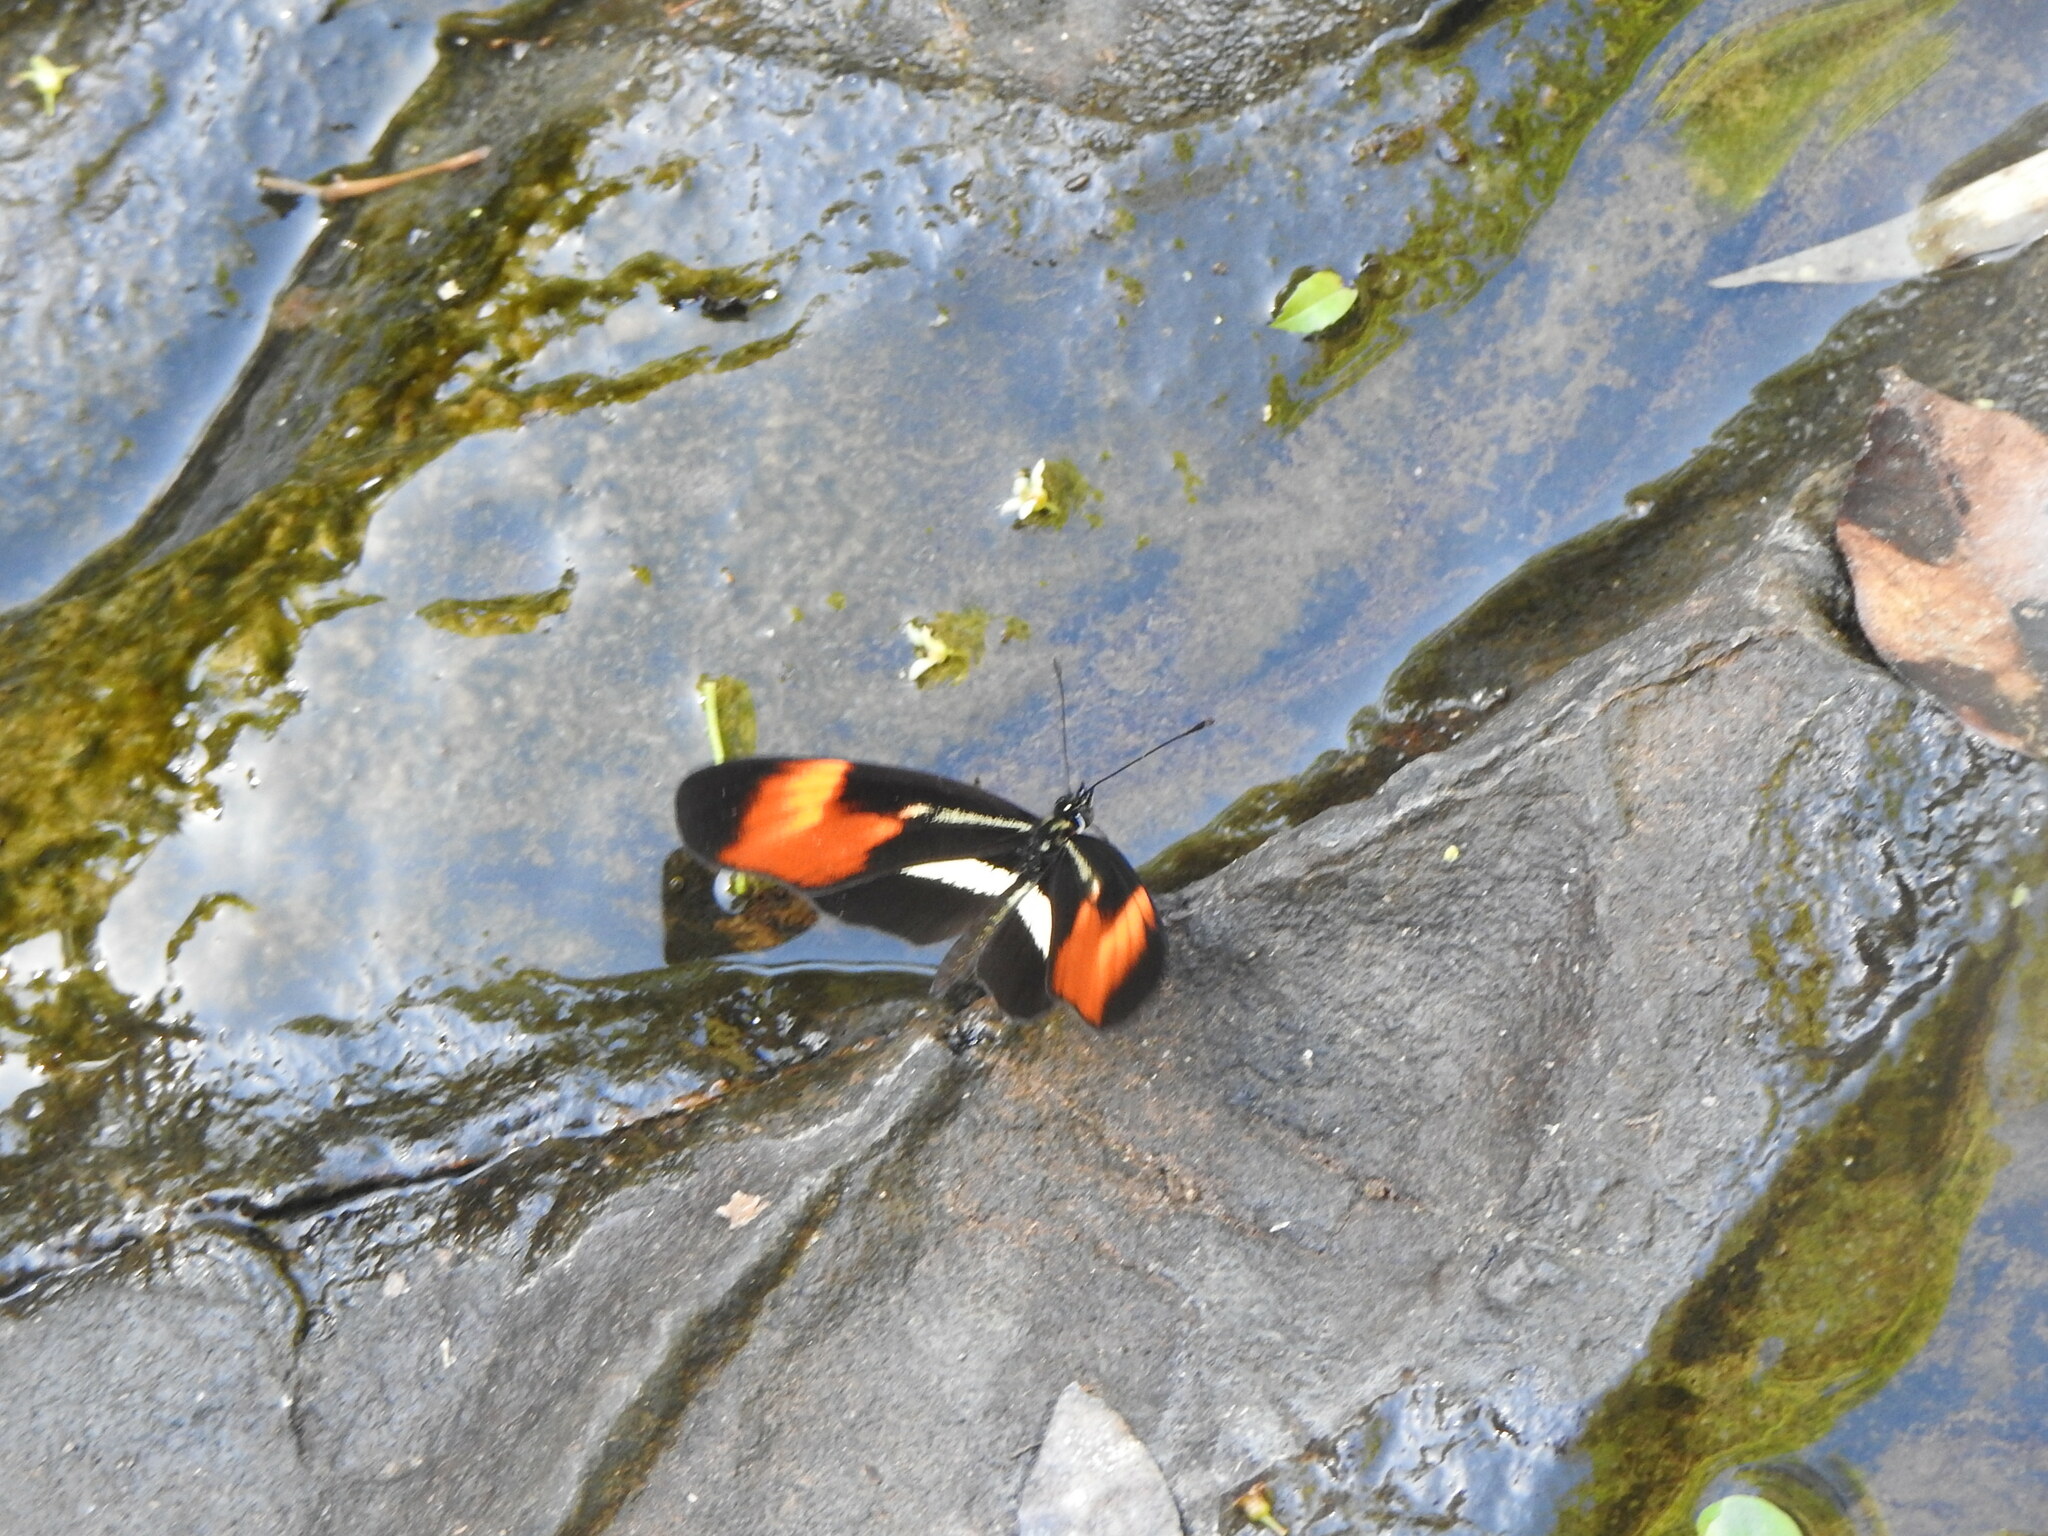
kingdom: Animalia
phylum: Arthropoda
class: Insecta
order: Lepidoptera
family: Nymphalidae
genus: Eresia
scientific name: Eresia lansdorfi
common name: Lansdorf's crescent
